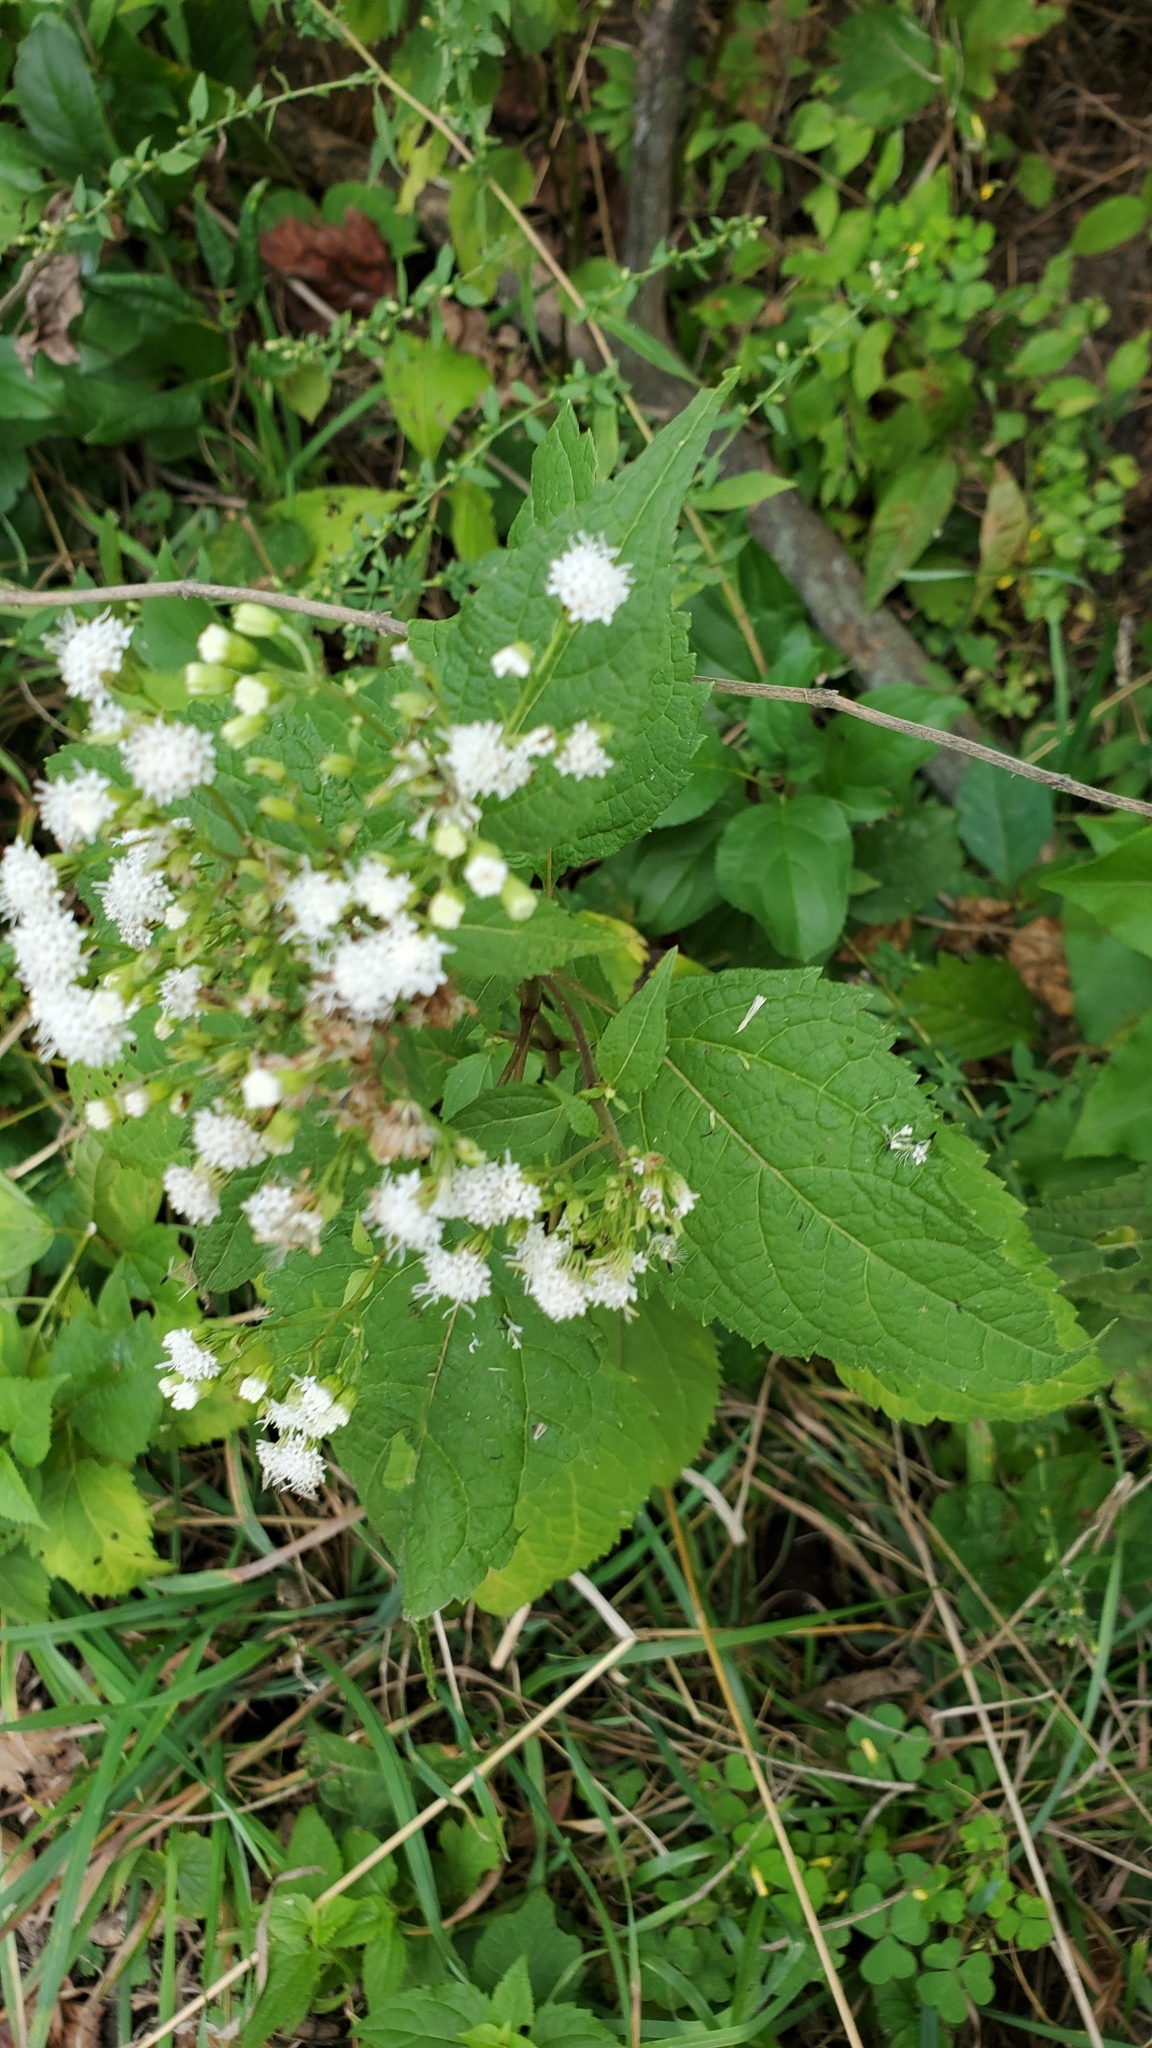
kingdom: Plantae
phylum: Tracheophyta
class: Magnoliopsida
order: Asterales
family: Asteraceae
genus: Ageratina
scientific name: Ageratina altissima
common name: White snakeroot
